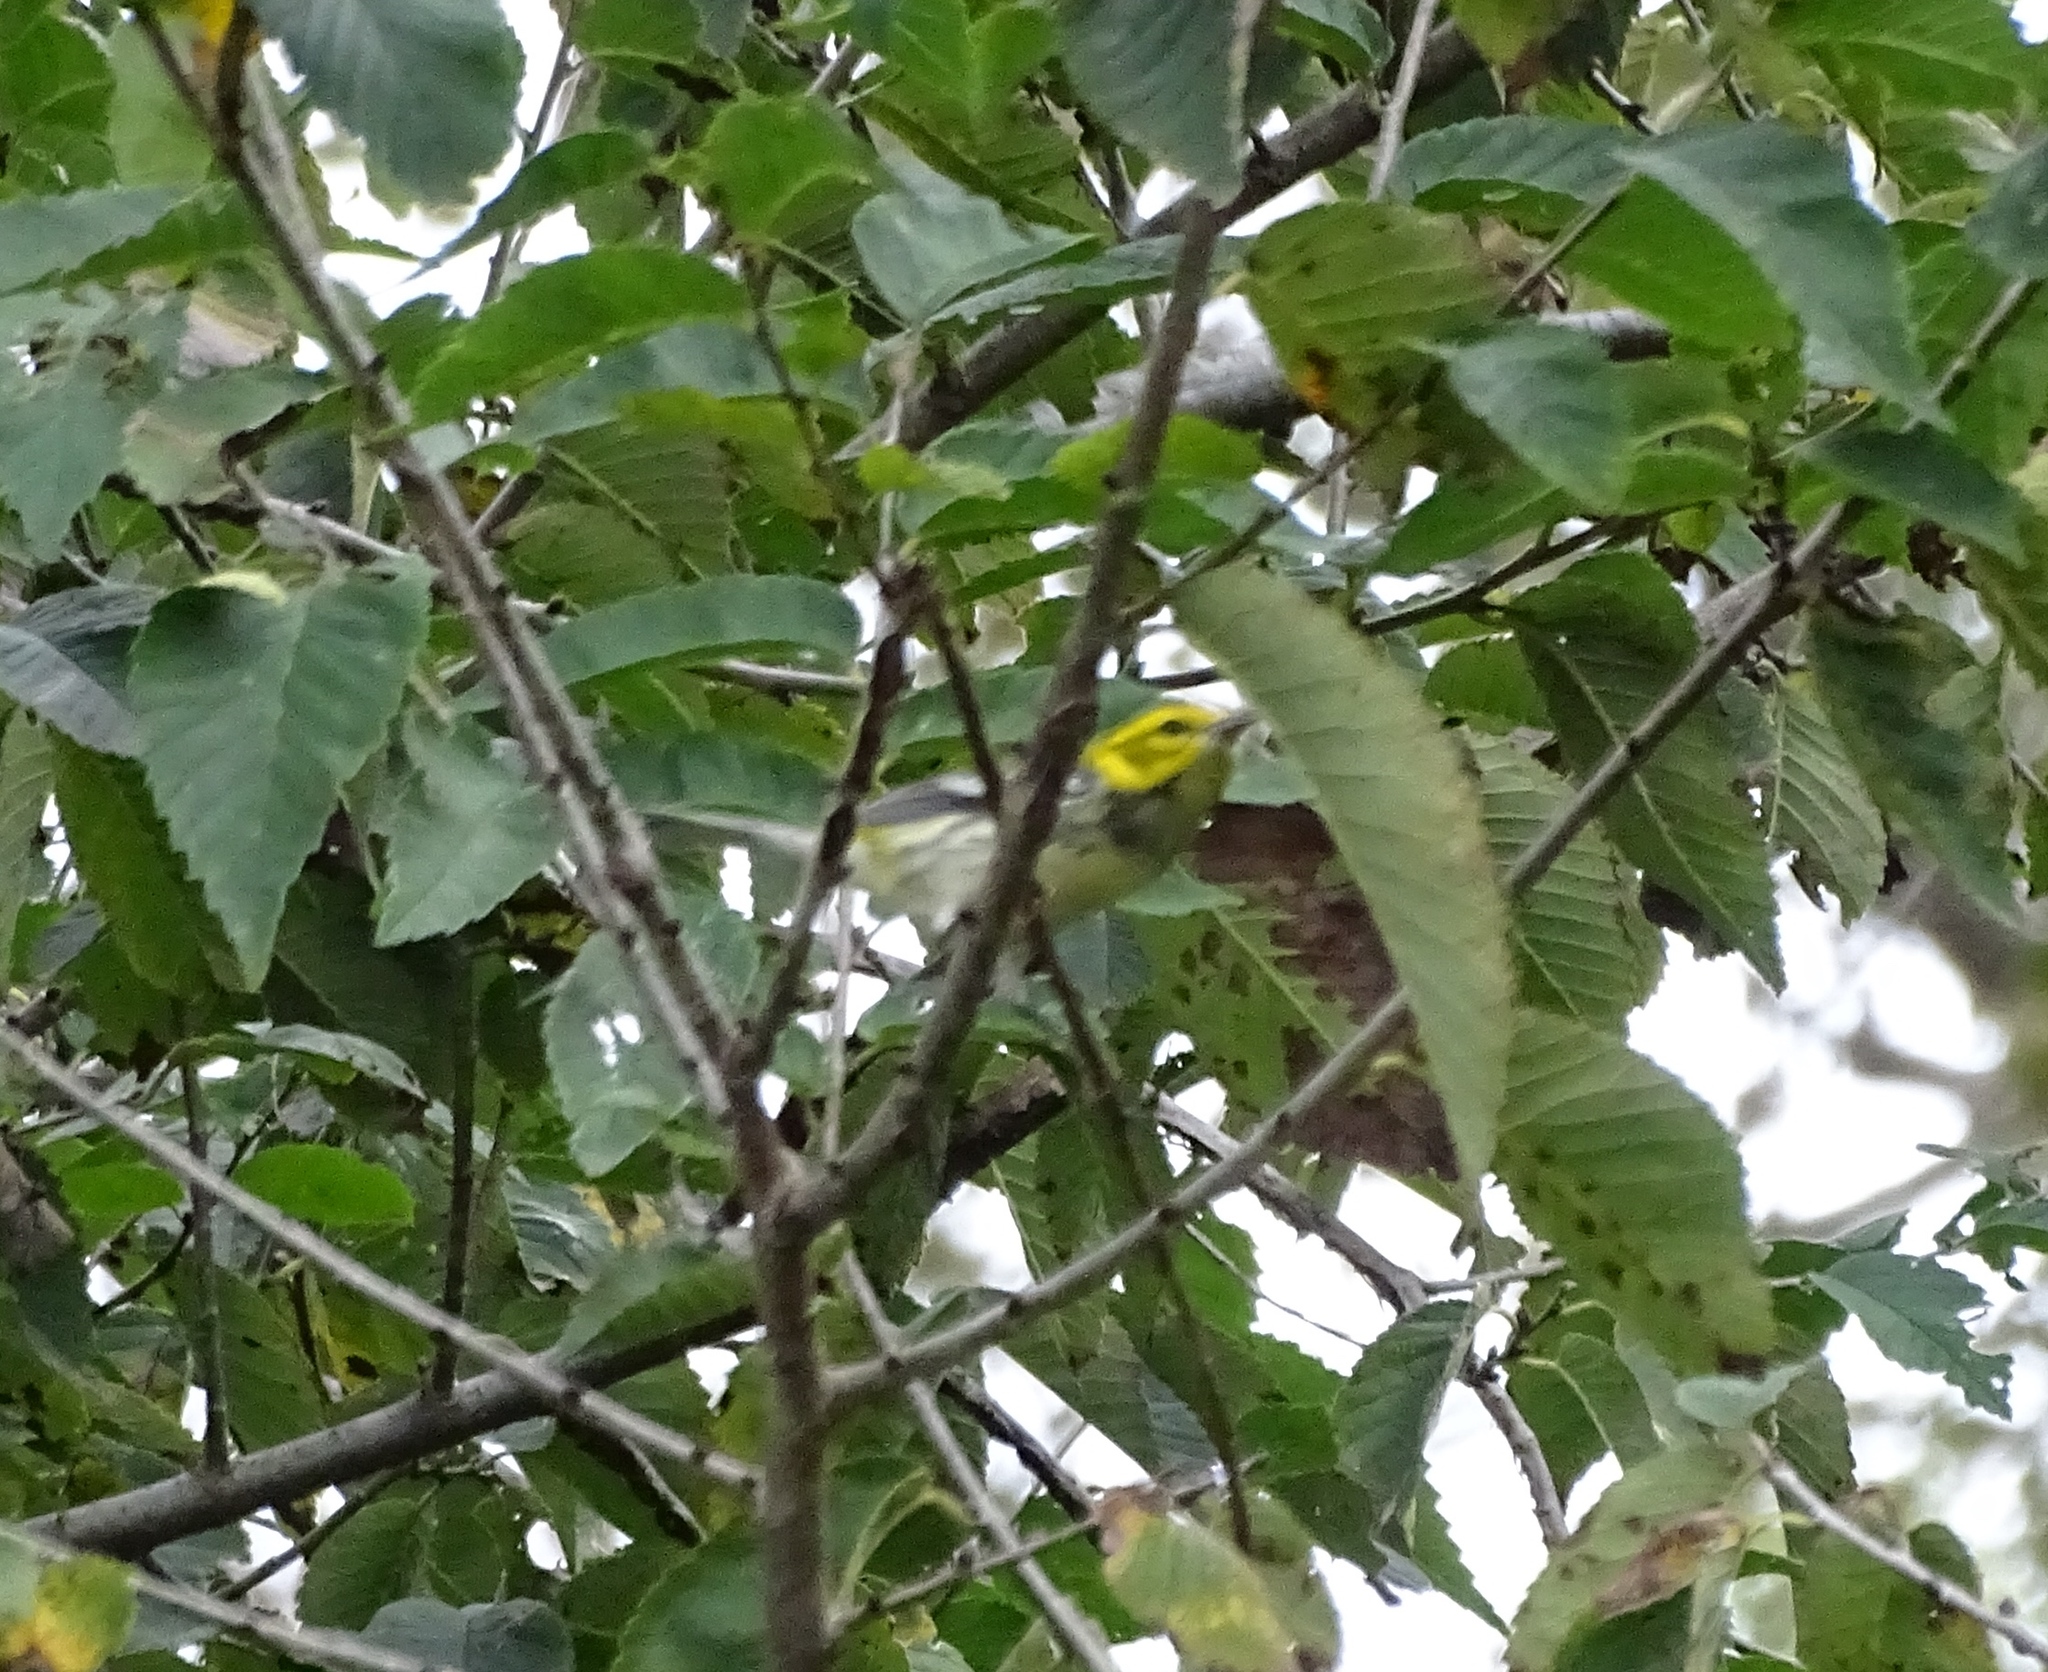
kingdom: Animalia
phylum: Chordata
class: Aves
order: Passeriformes
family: Parulidae
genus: Setophaga
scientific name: Setophaga virens
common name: Black-throated green warbler
